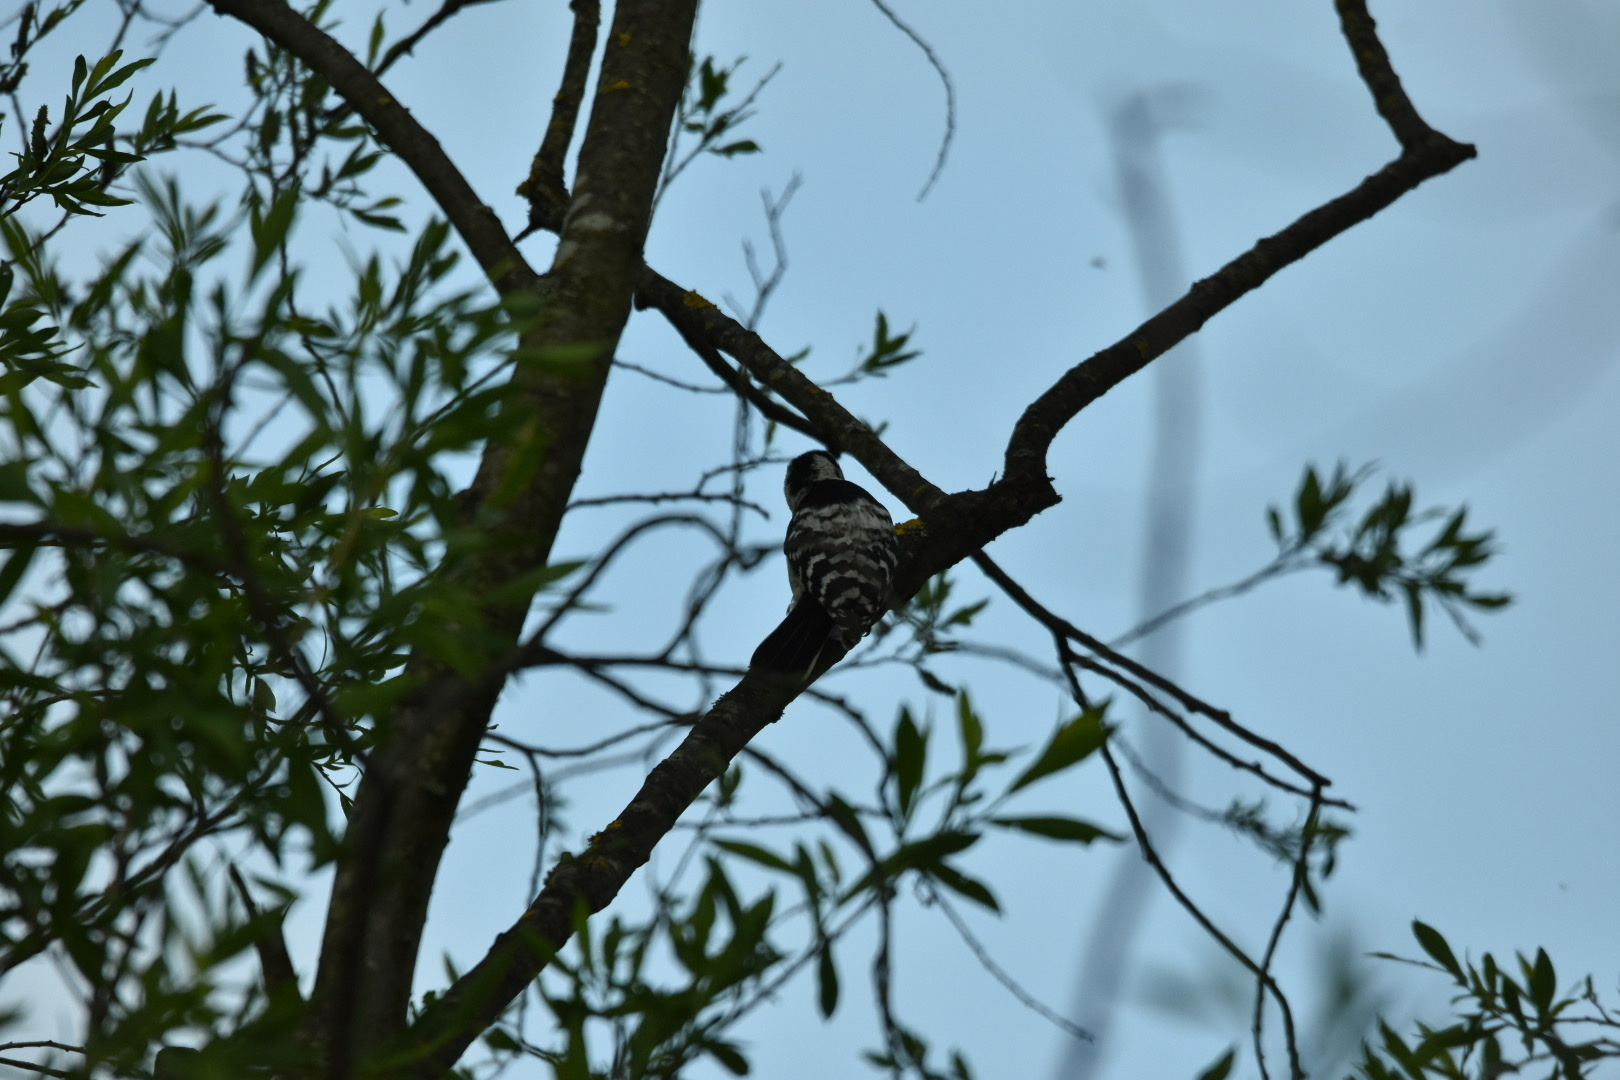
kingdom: Animalia
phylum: Chordata
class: Aves
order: Piciformes
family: Picidae
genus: Dryobates
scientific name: Dryobates minor
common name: Lesser spotted woodpecker
